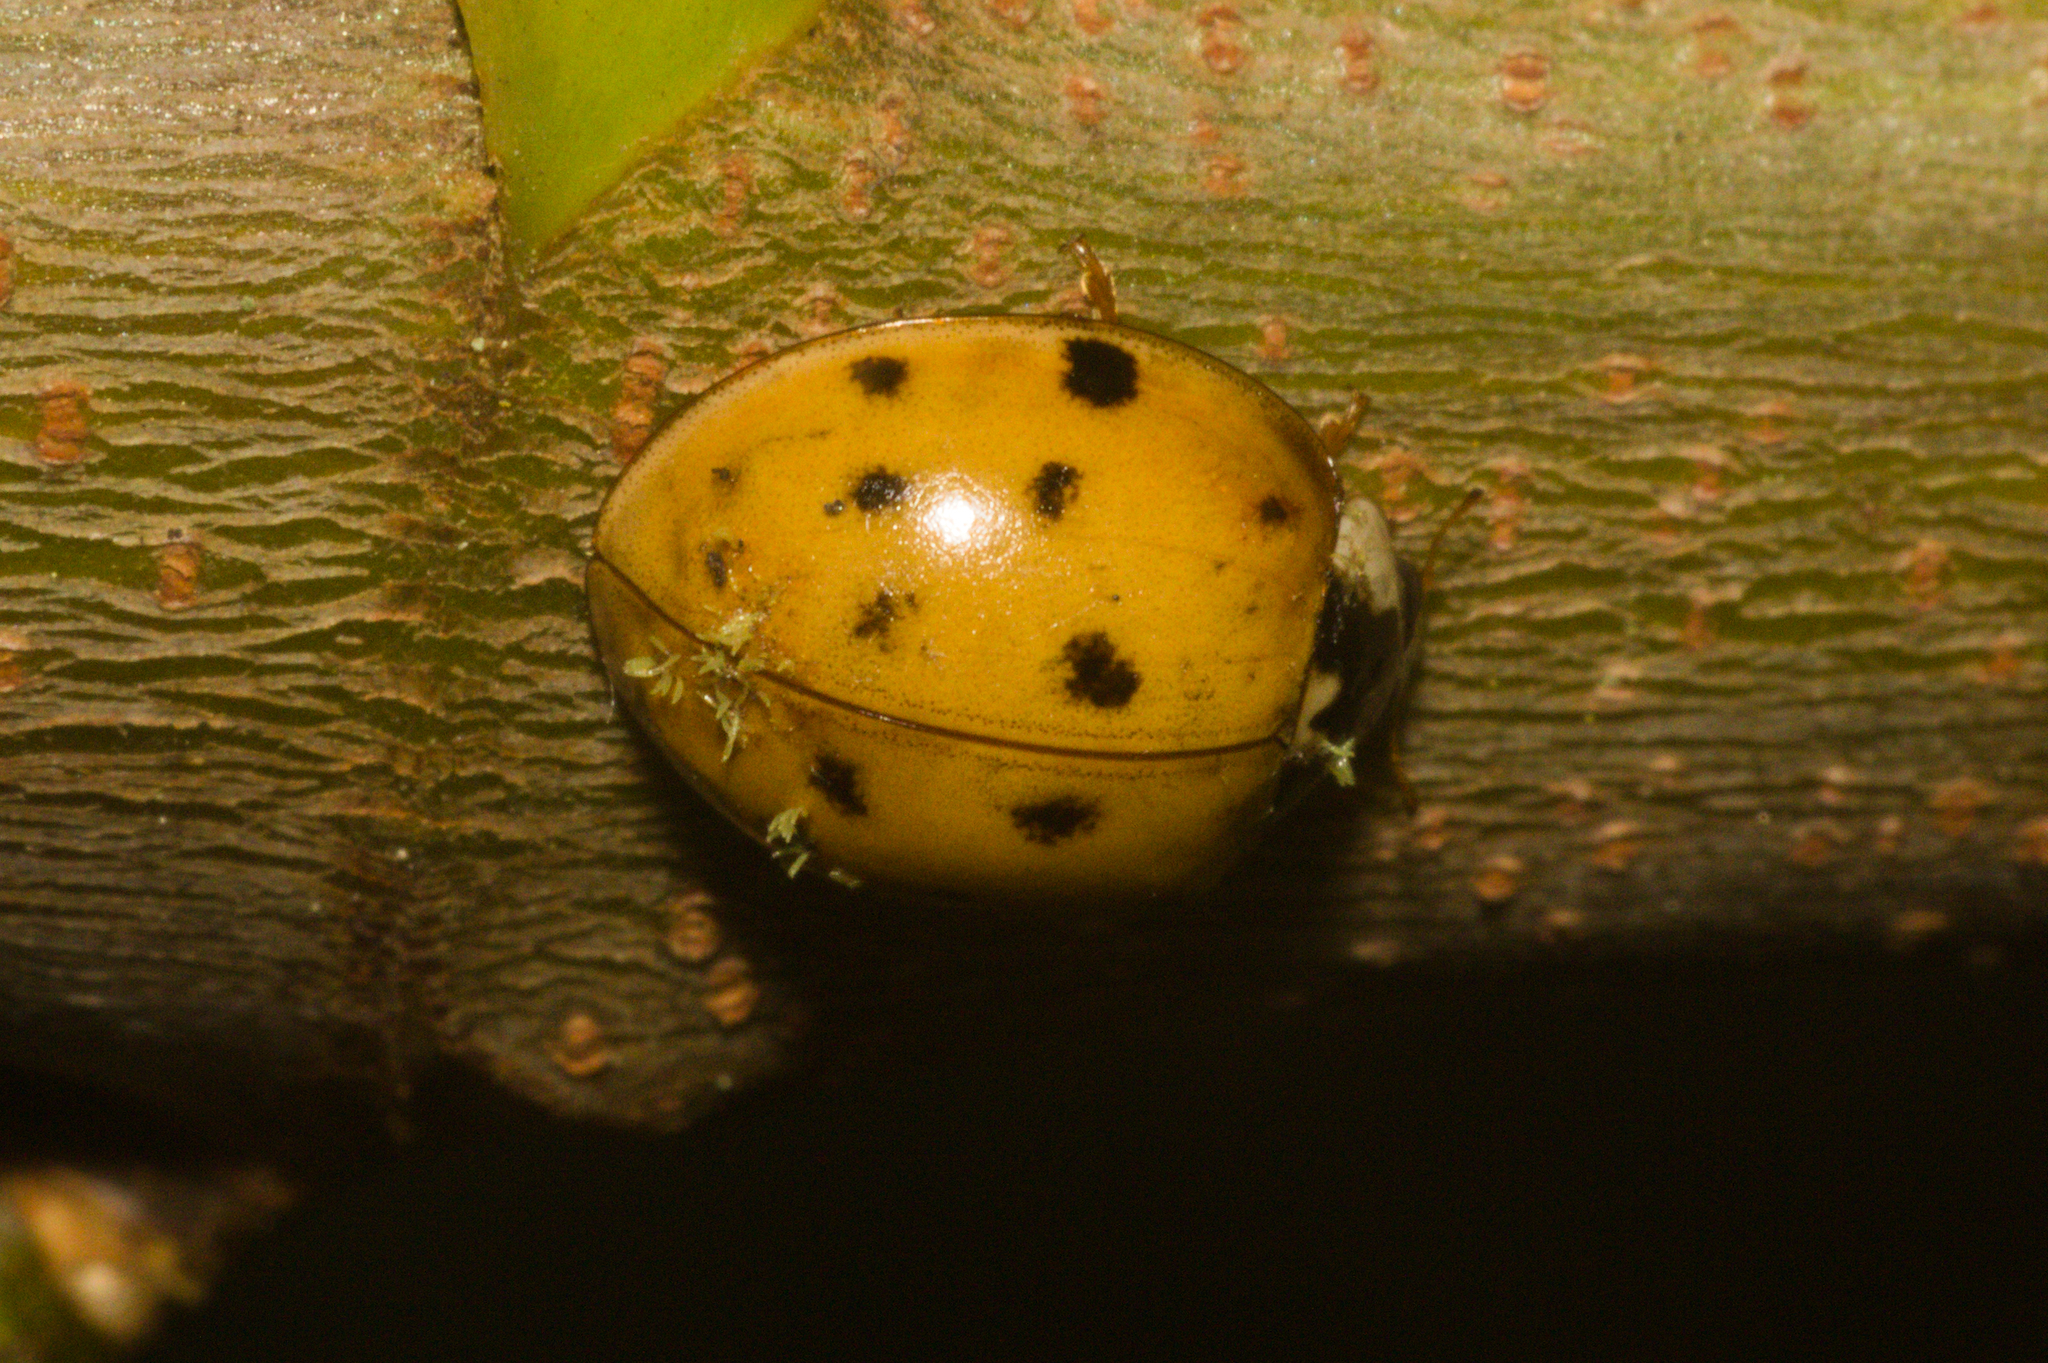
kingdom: Animalia
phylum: Arthropoda
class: Insecta
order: Coleoptera
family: Coccinellidae
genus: Harmonia
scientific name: Harmonia axyridis
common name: Harlequin ladybird
